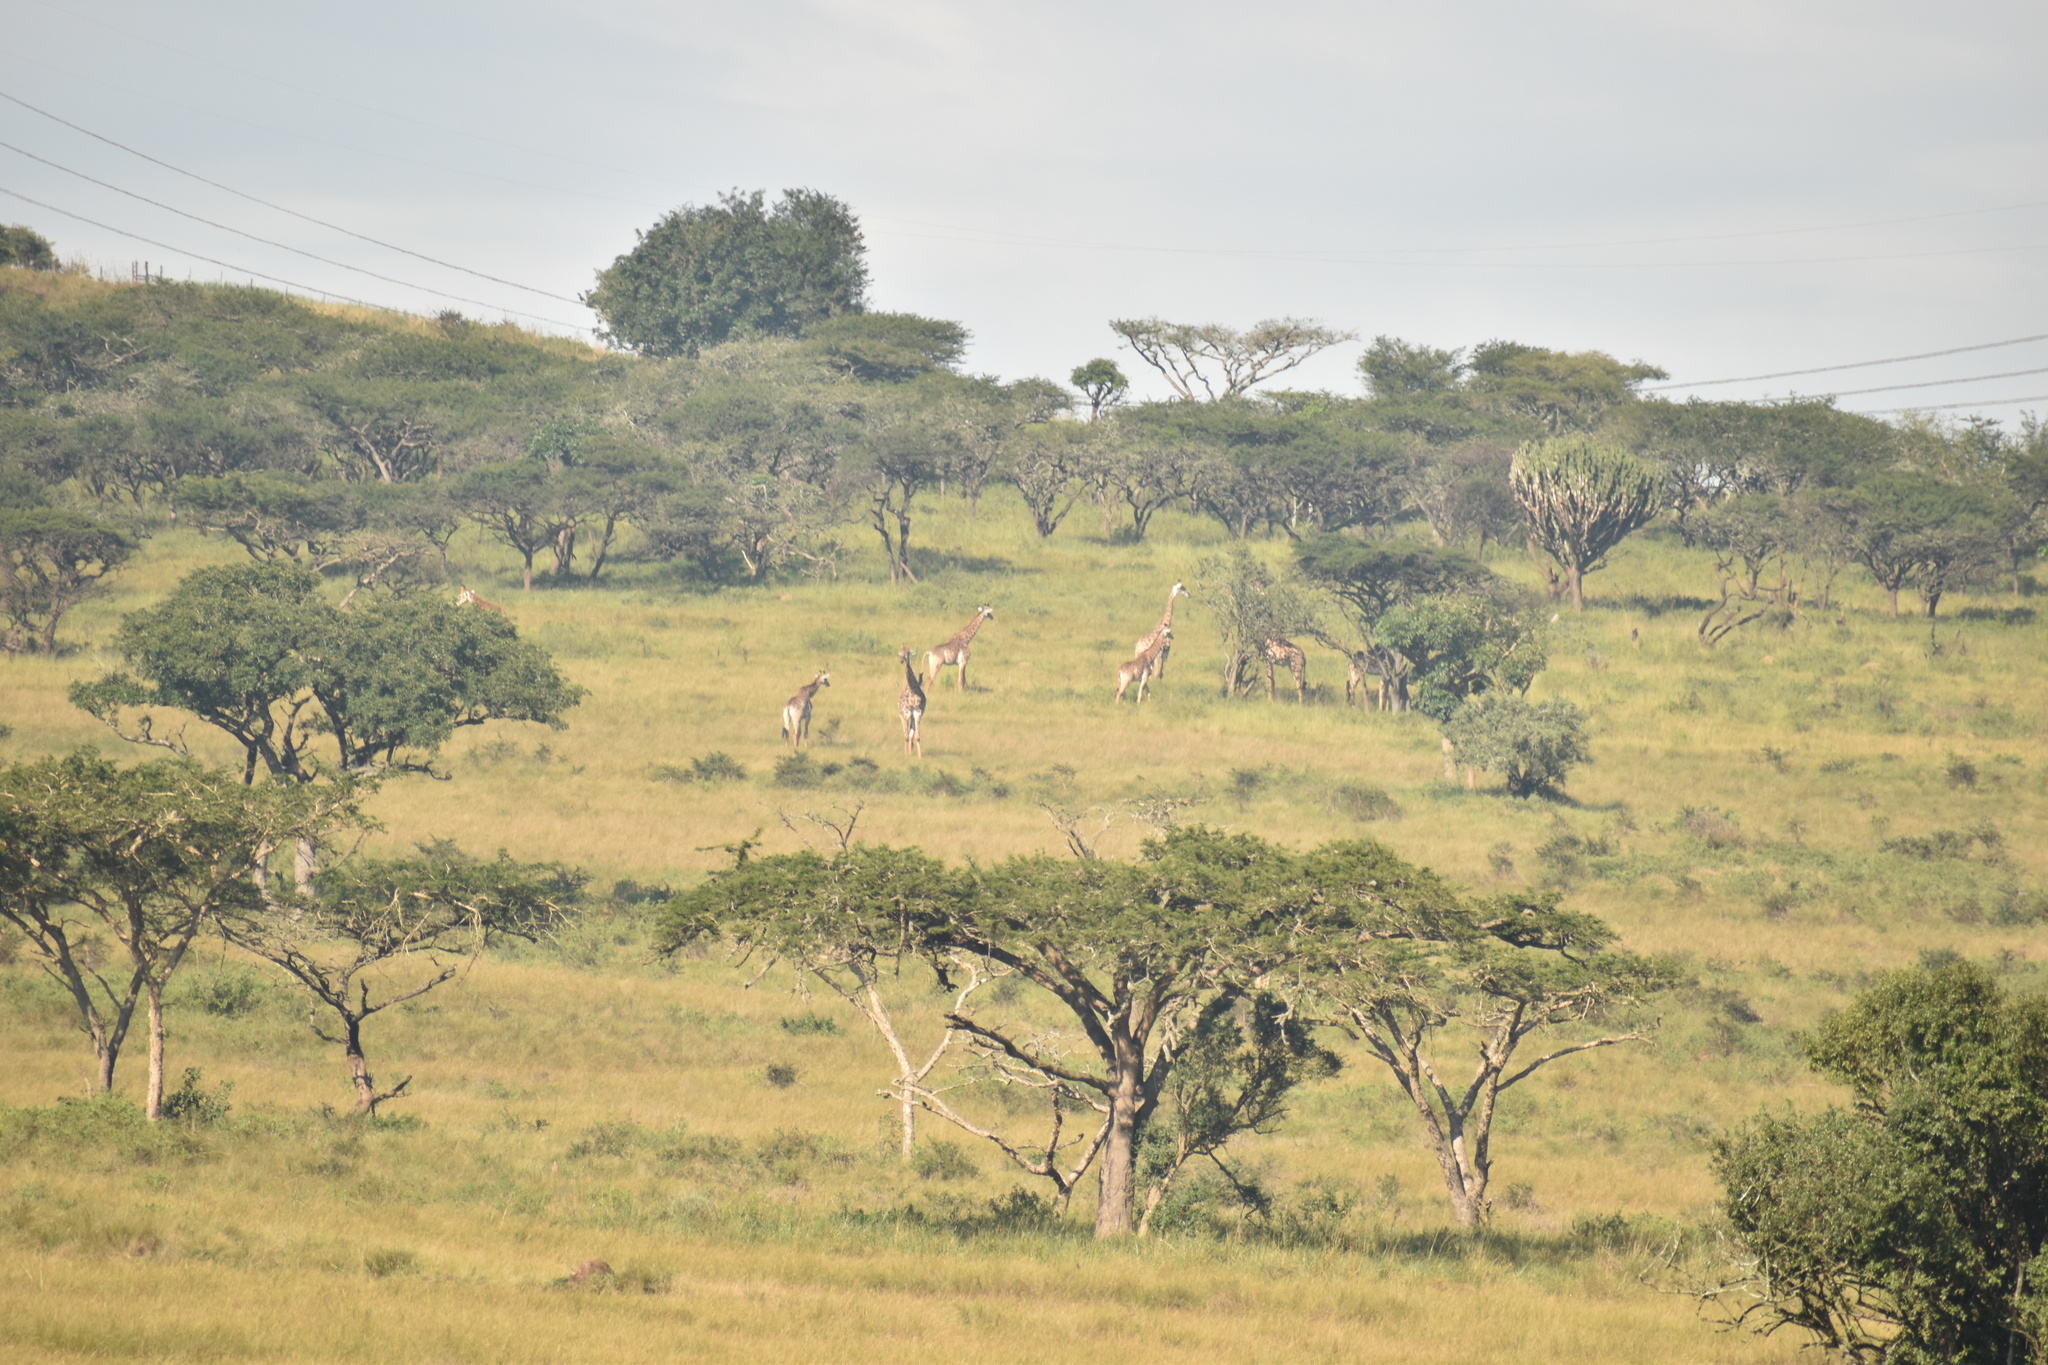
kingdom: Animalia
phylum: Chordata
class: Mammalia
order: Artiodactyla
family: Giraffidae
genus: Giraffa
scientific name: Giraffa giraffa
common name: Southern giraffe
